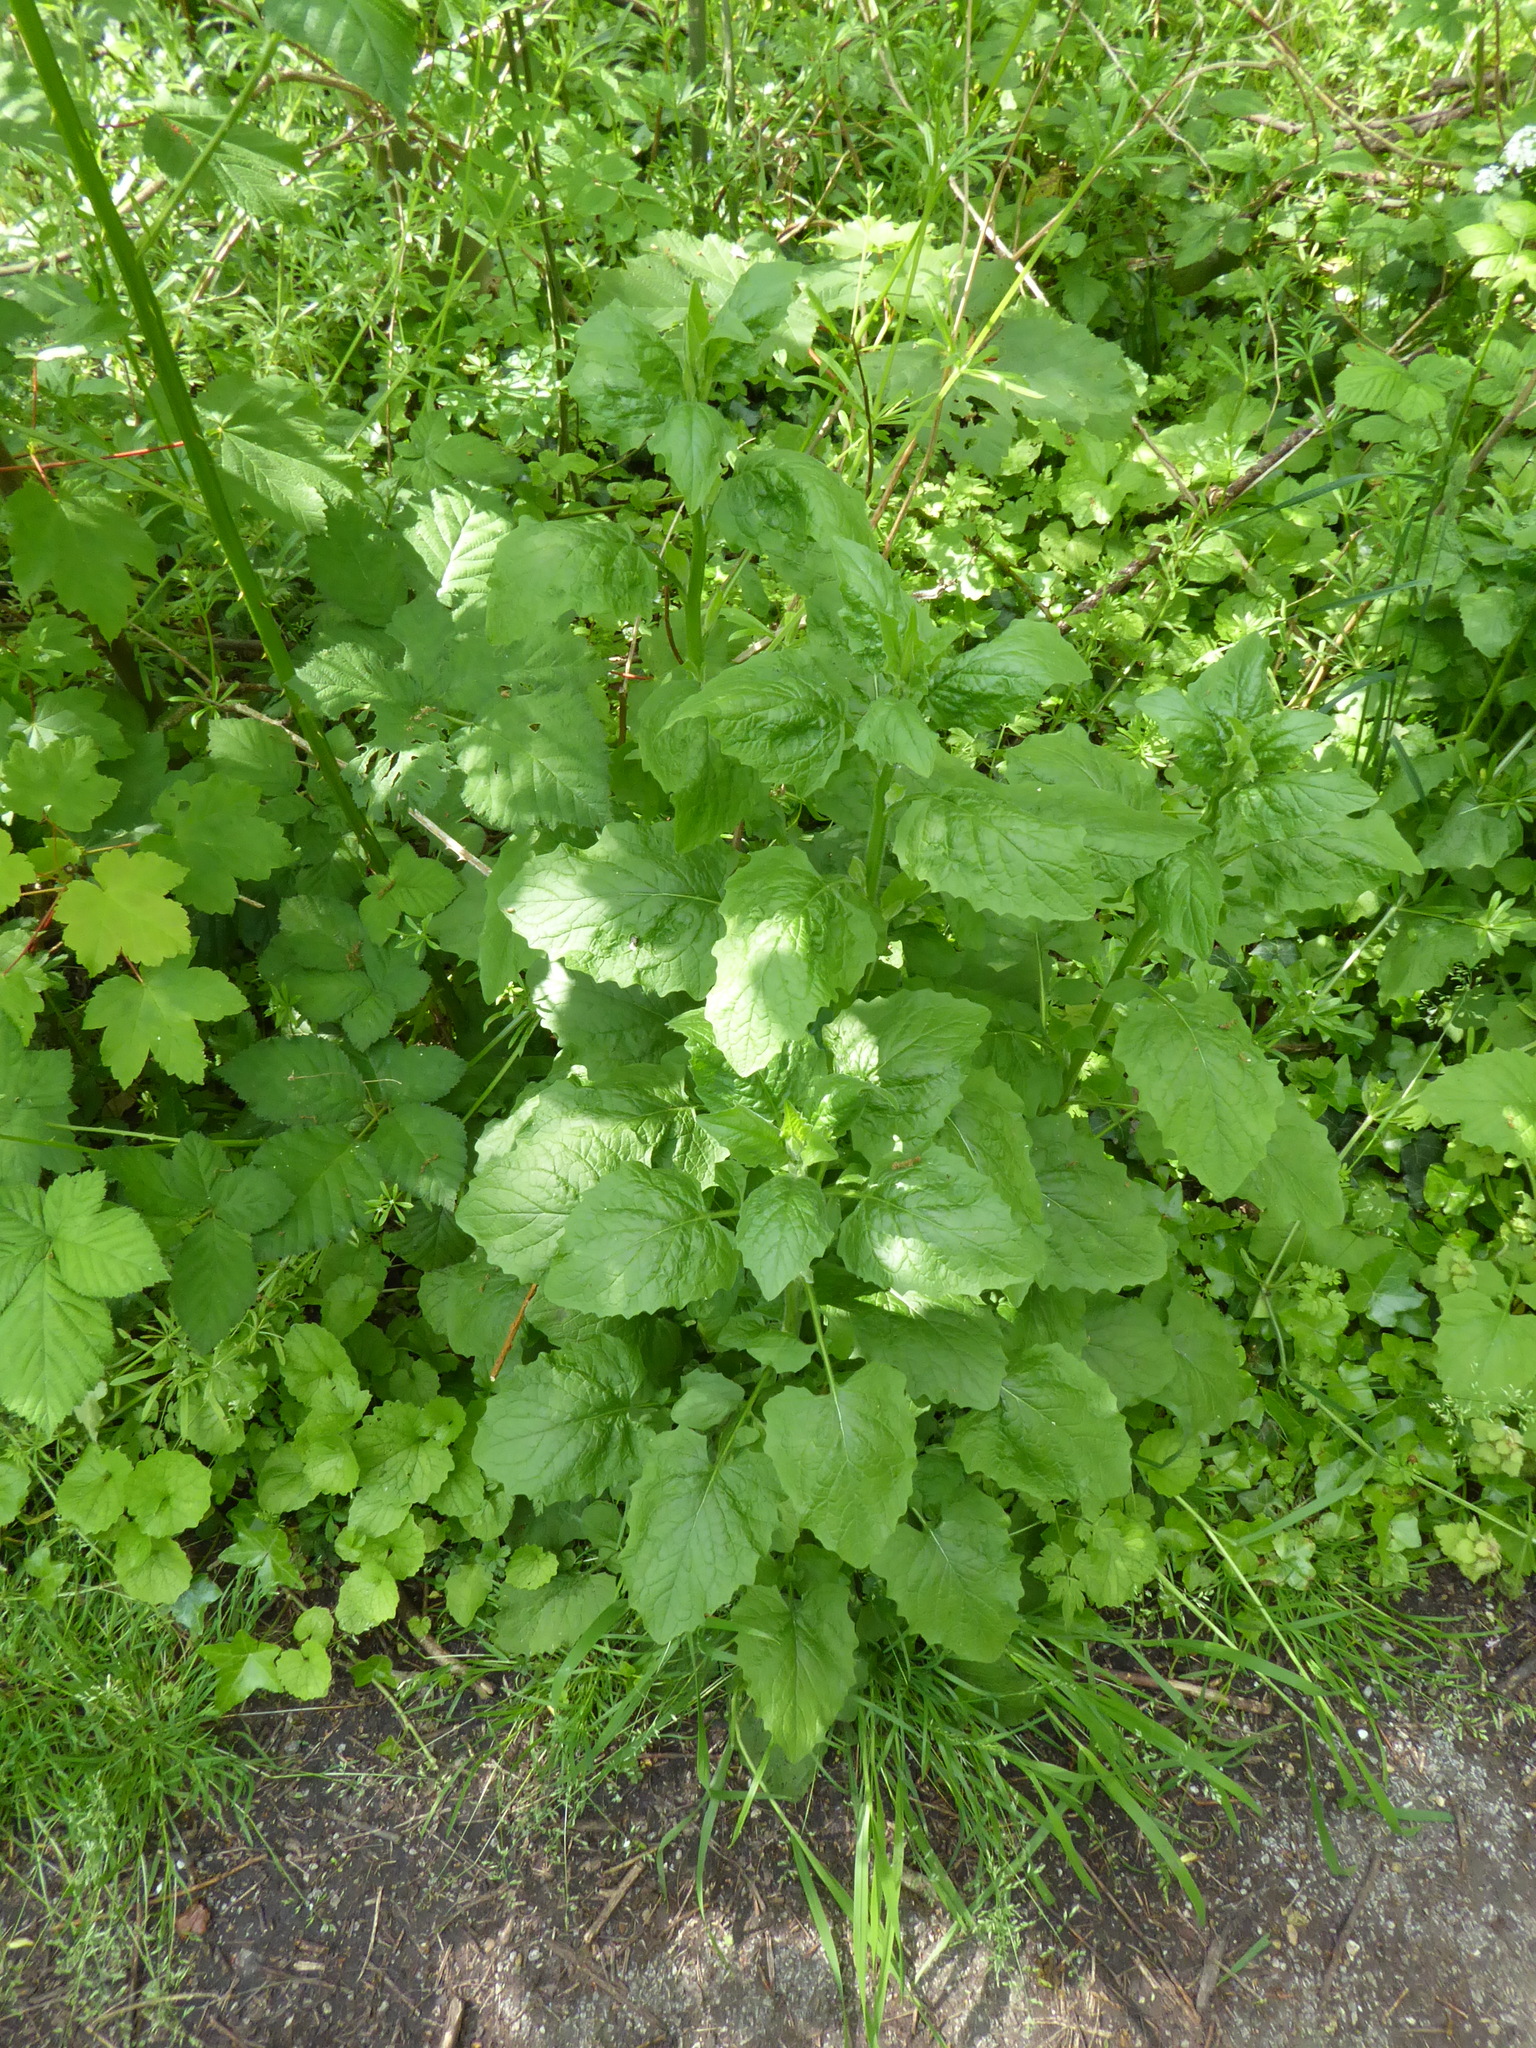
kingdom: Plantae
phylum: Tracheophyta
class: Magnoliopsida
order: Asterales
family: Asteraceae
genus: Lapsana
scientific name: Lapsana communis
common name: Nipplewort
